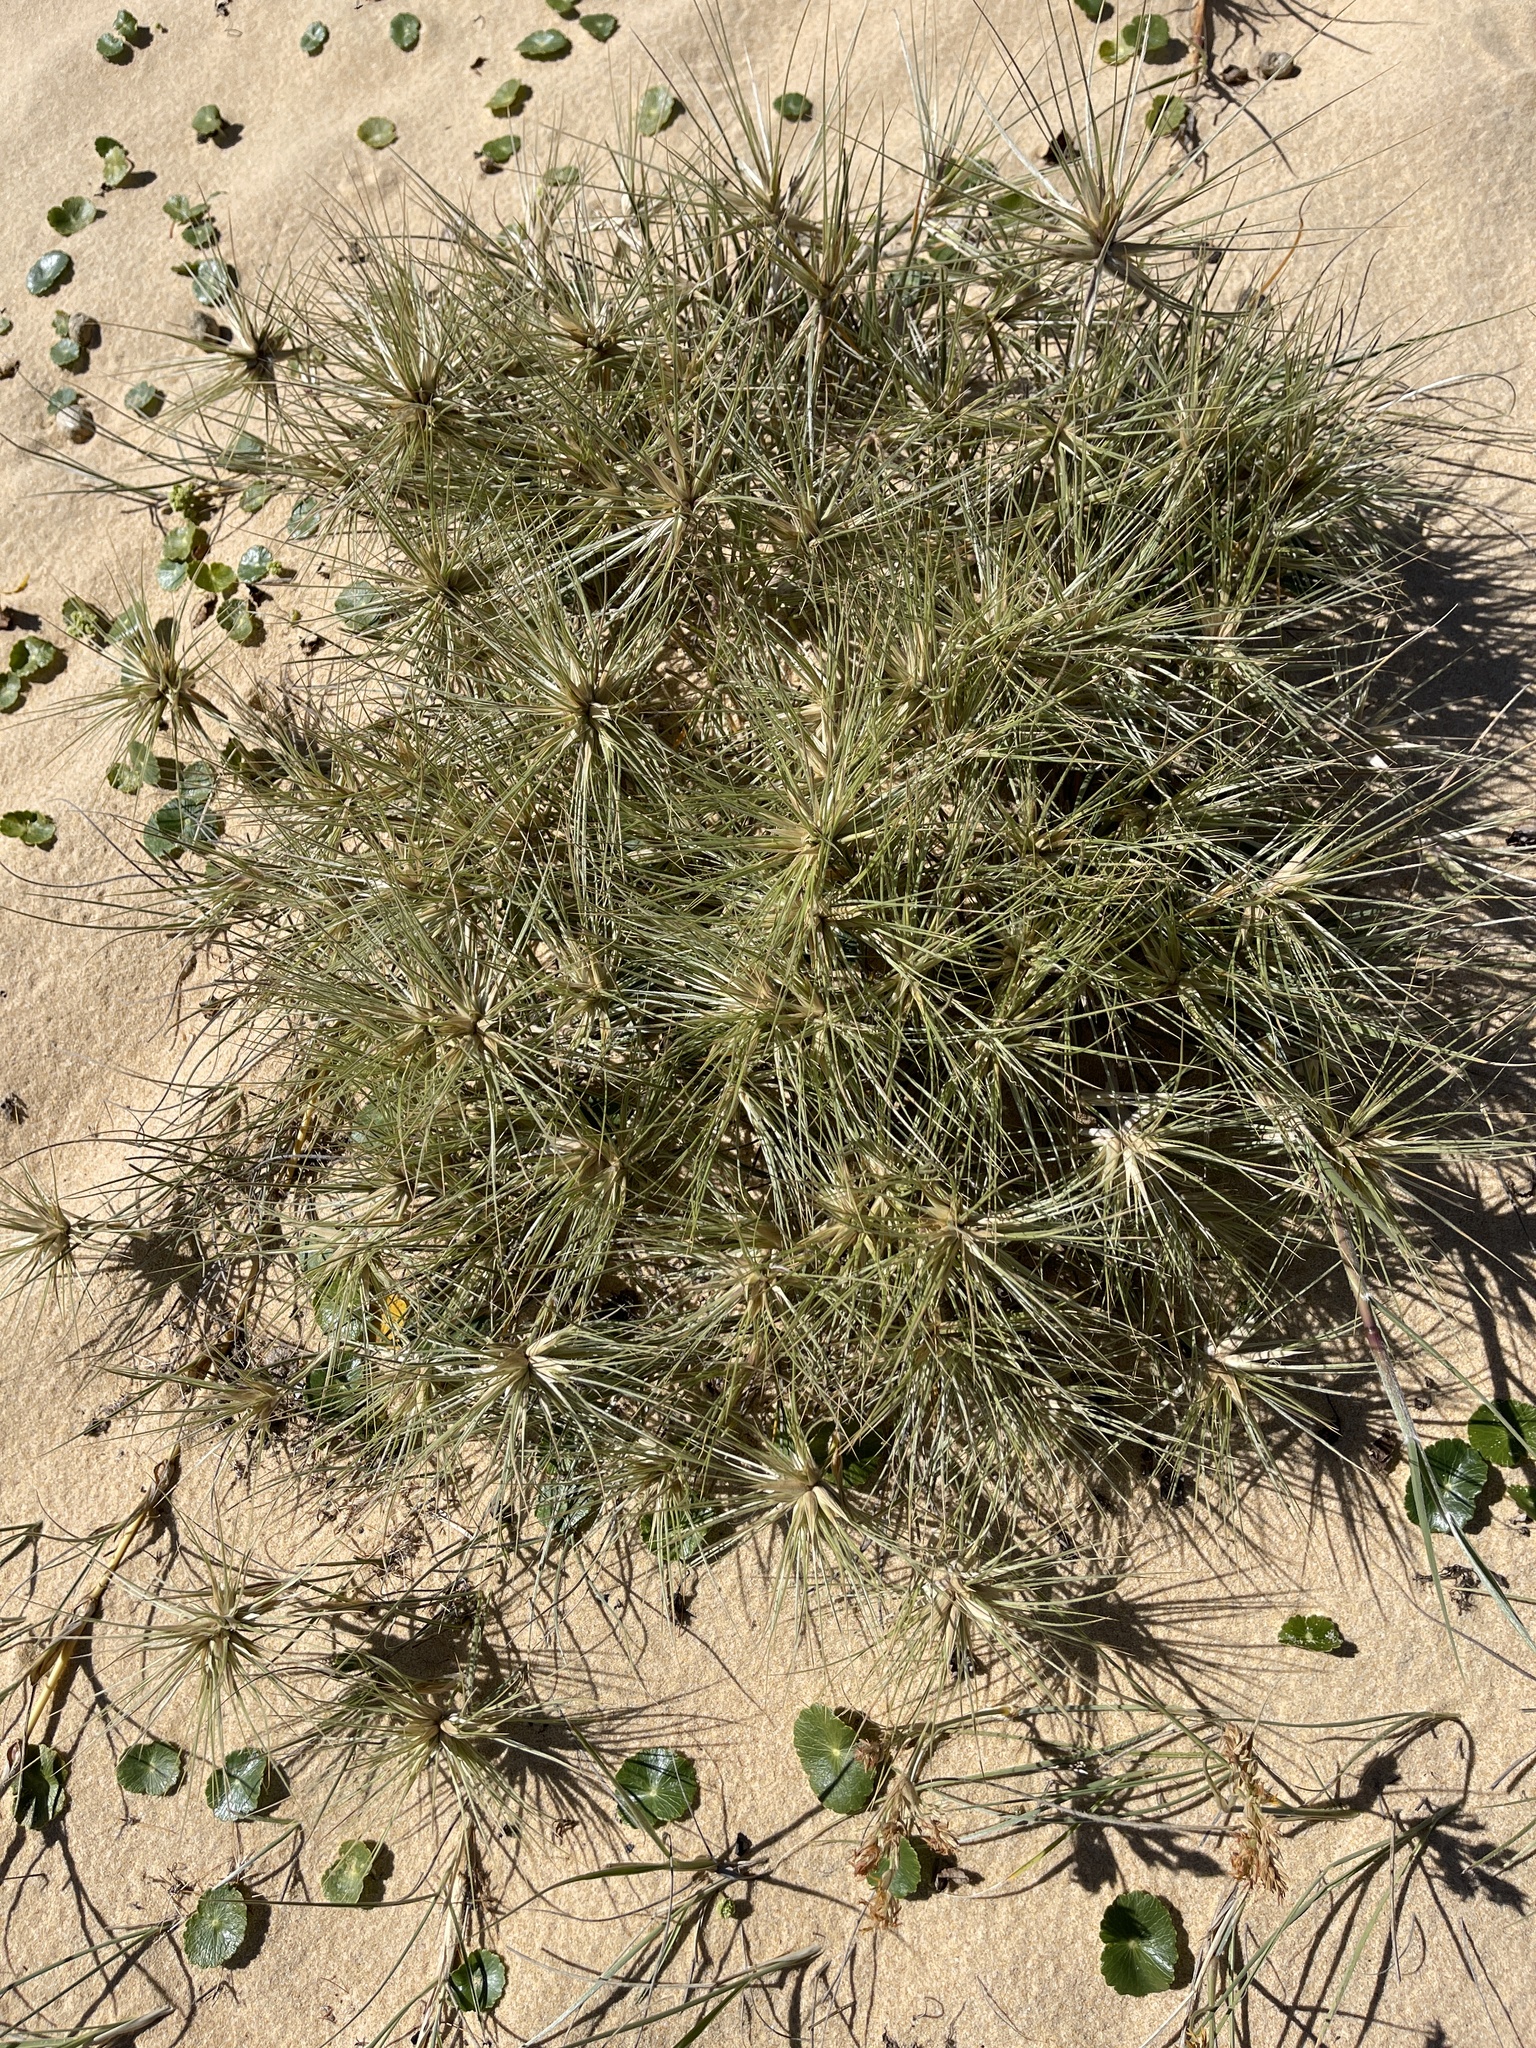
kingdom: Plantae
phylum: Tracheophyta
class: Liliopsida
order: Poales
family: Poaceae
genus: Spinifex
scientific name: Spinifex sericeus
